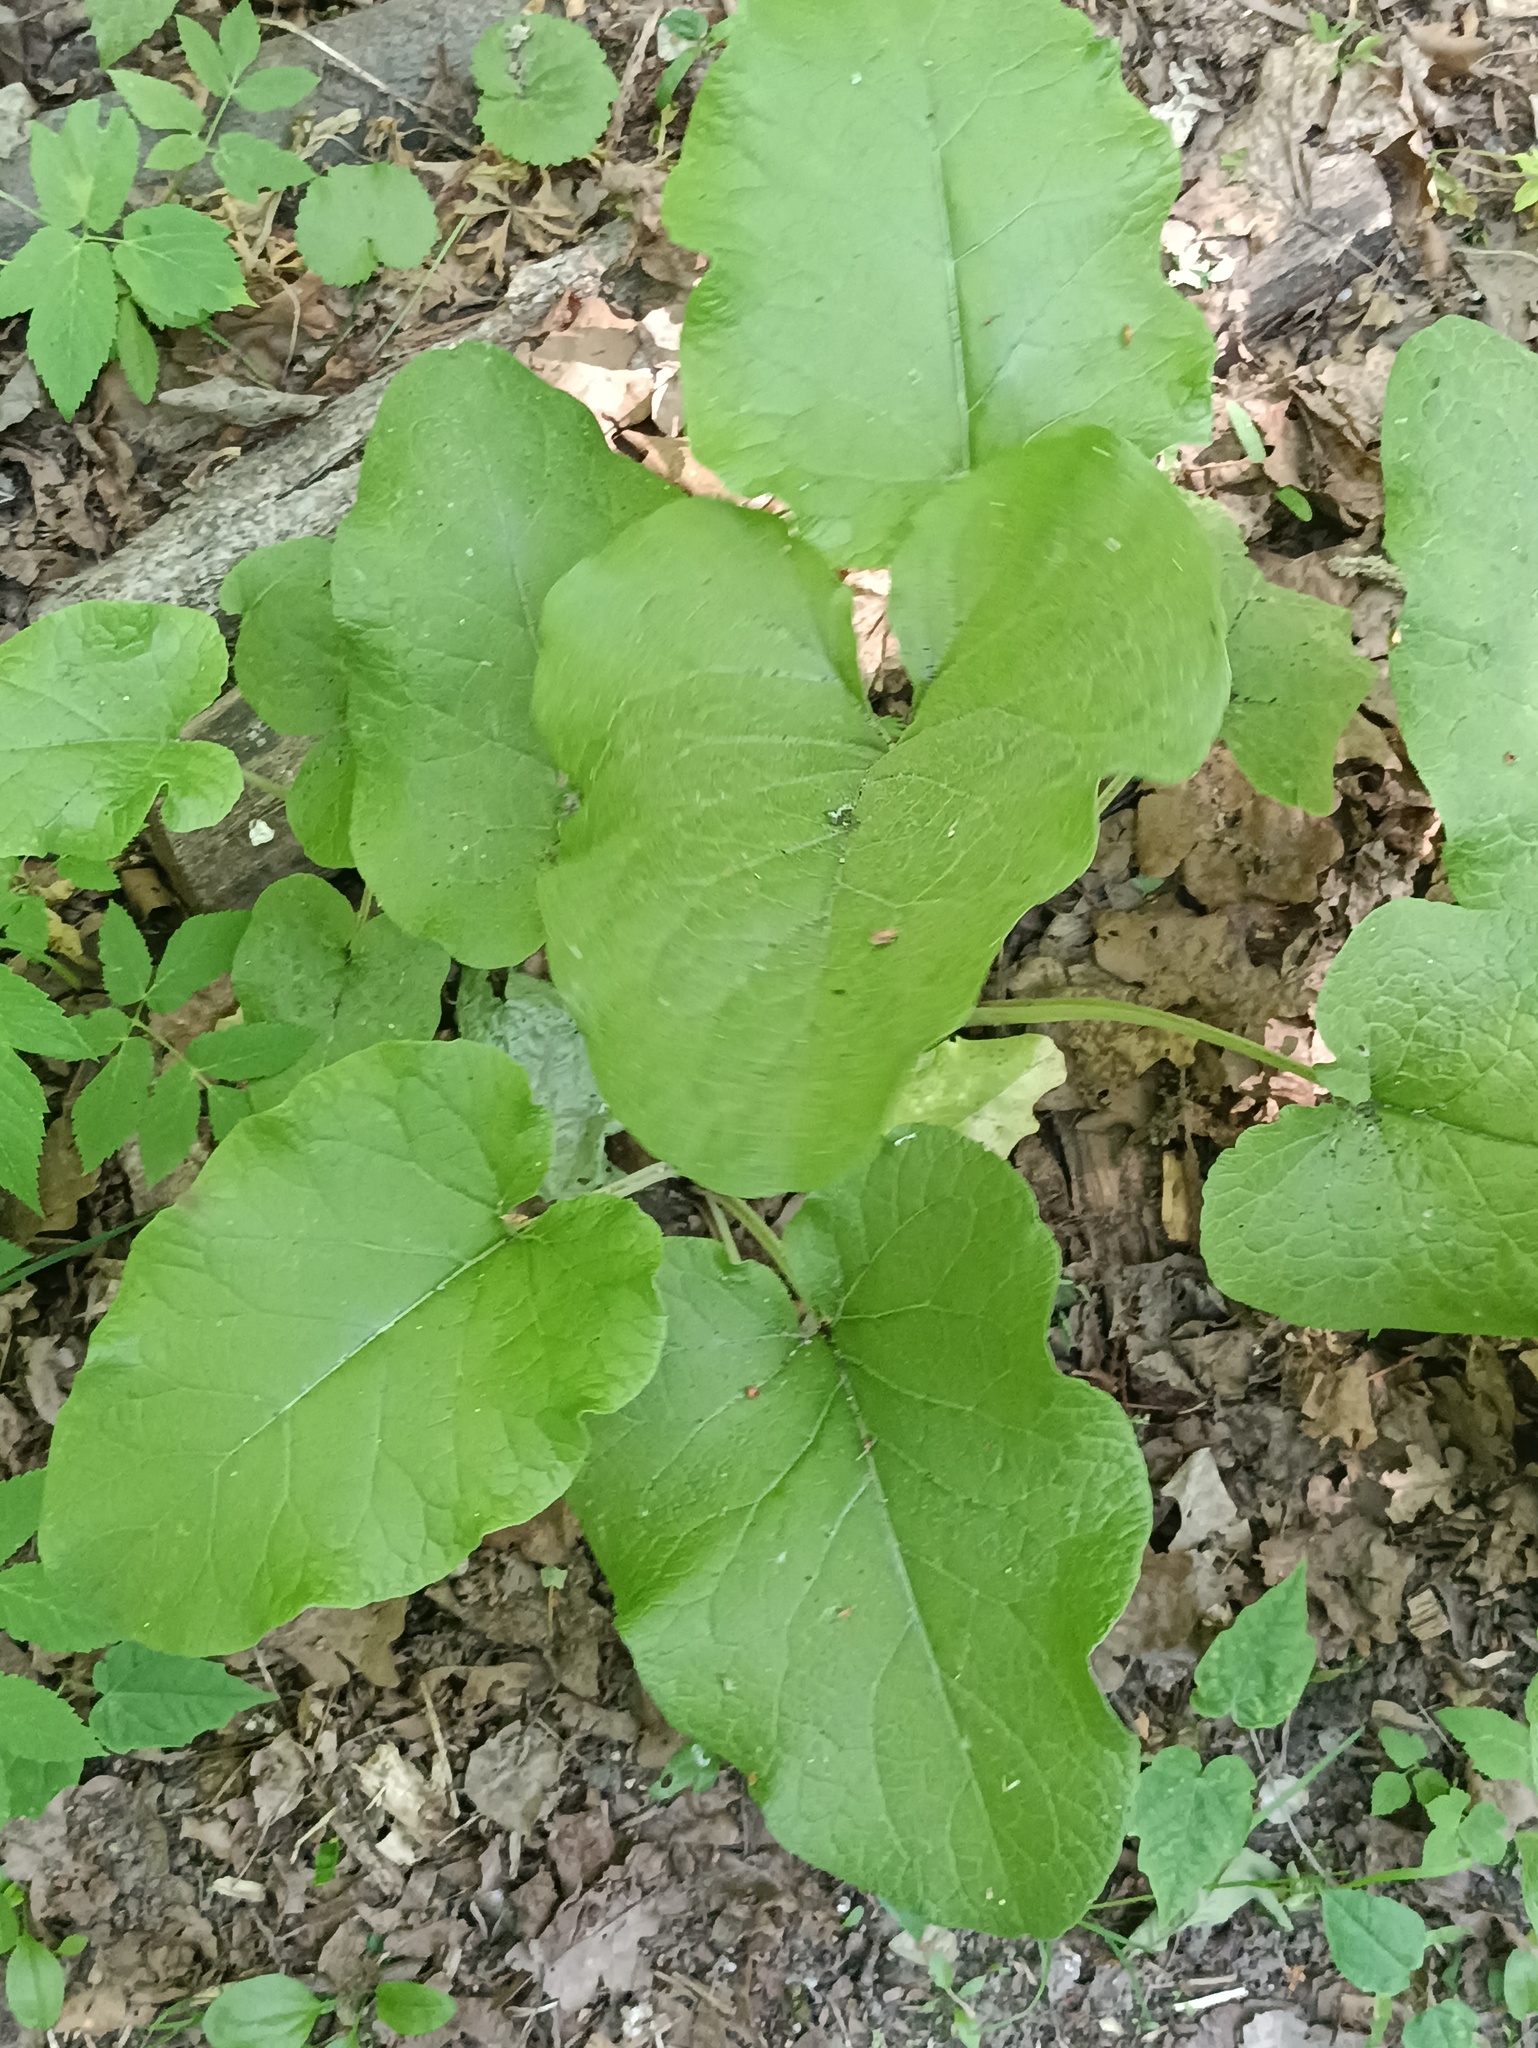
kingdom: Plantae
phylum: Tracheophyta
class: Magnoliopsida
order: Asterales
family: Asteraceae
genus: Arctium
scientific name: Arctium
